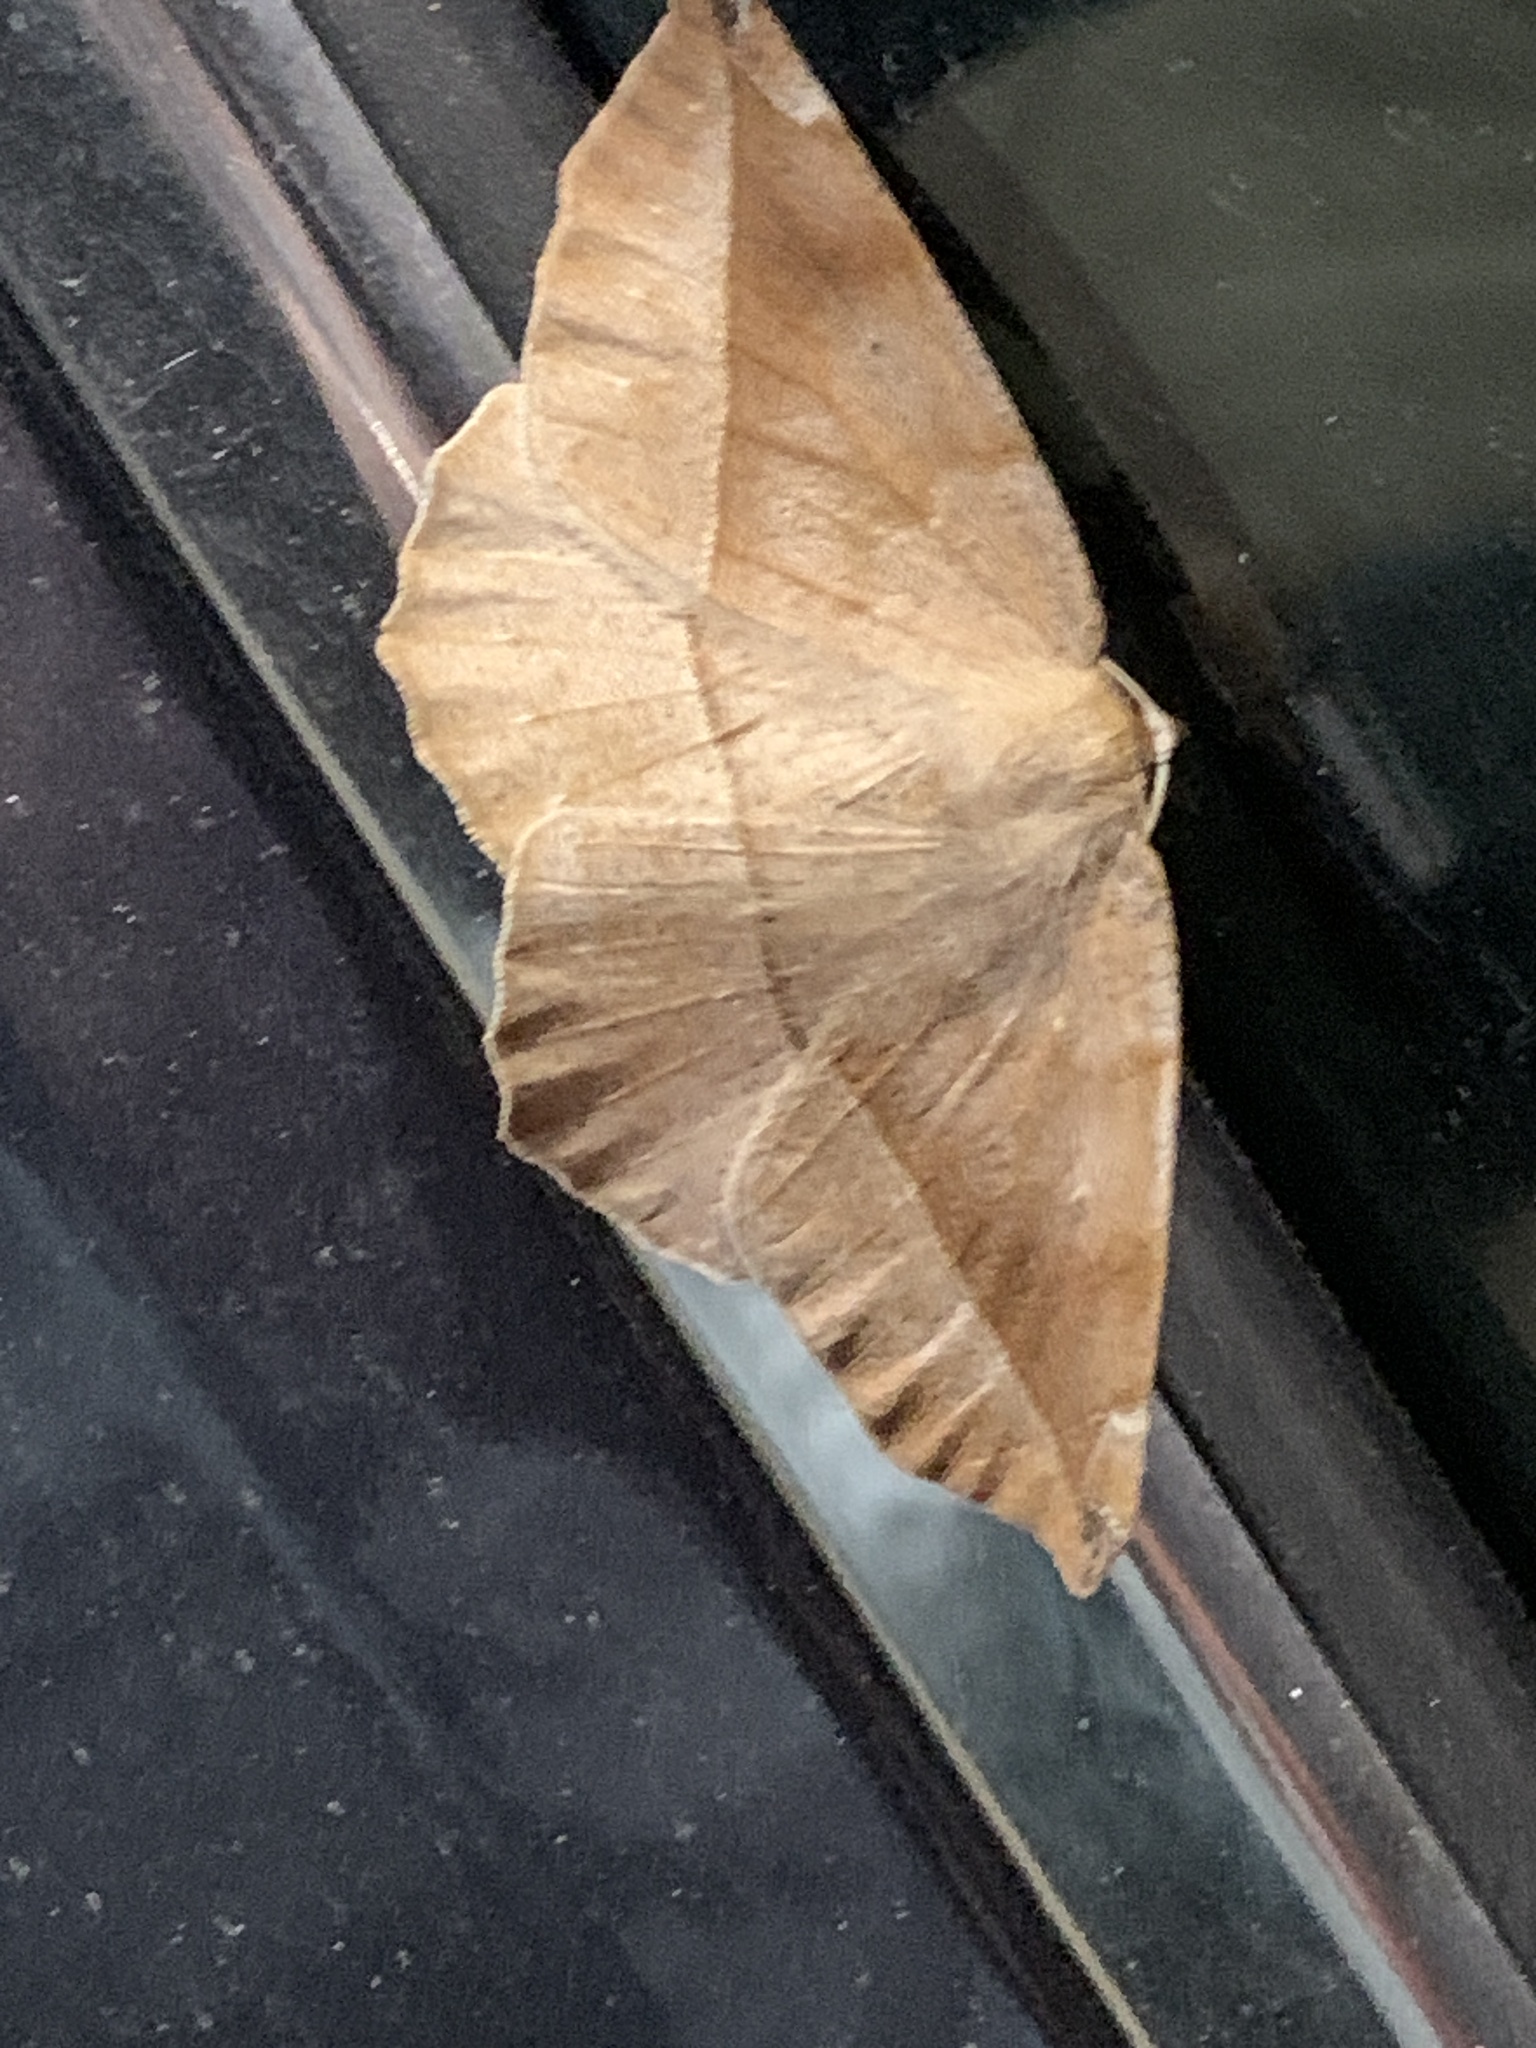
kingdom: Animalia
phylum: Arthropoda
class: Insecta
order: Lepidoptera
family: Geometridae
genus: Eutrapela
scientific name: Eutrapela clemataria
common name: Curved-toothed geometer
